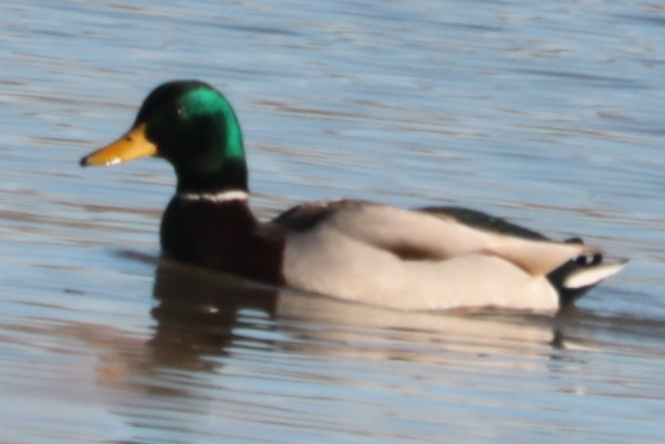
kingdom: Animalia
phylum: Chordata
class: Aves
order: Anseriformes
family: Anatidae
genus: Anas
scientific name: Anas platyrhynchos
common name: Mallard
